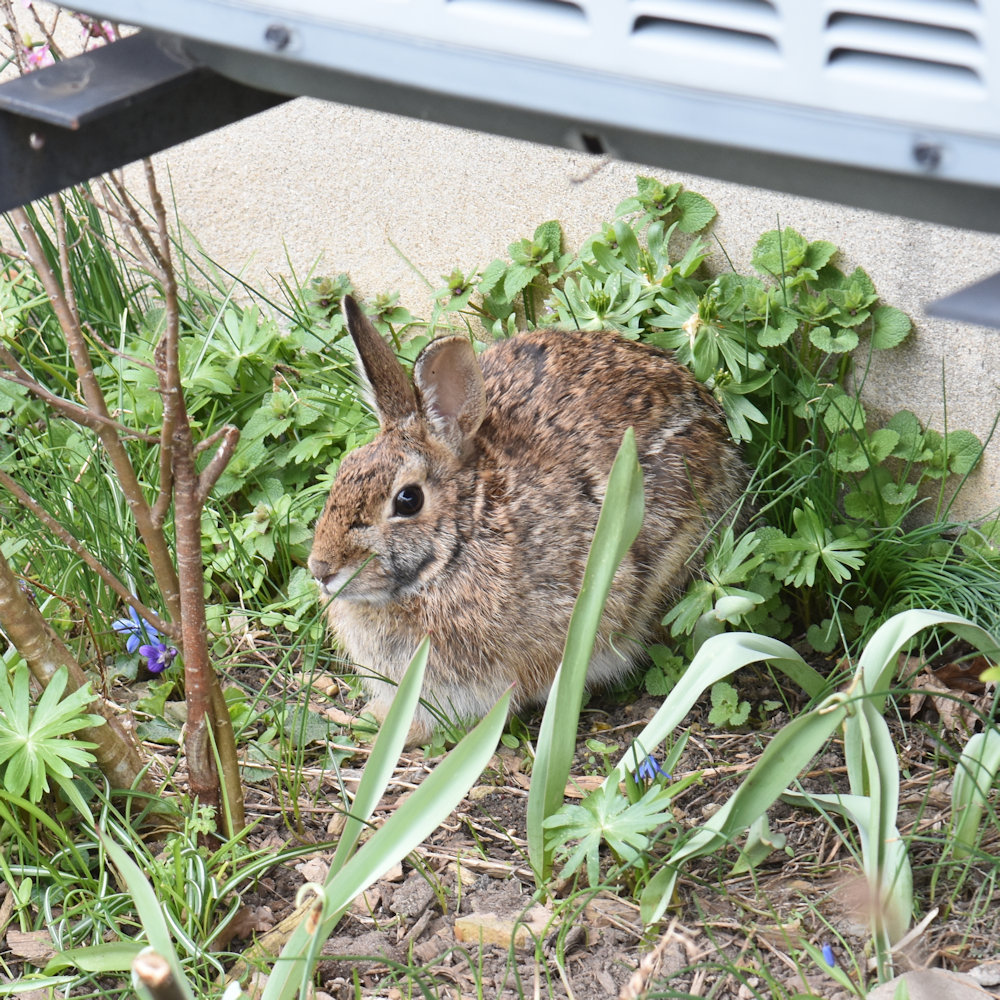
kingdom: Animalia
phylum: Chordata
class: Mammalia
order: Lagomorpha
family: Leporidae
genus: Sylvilagus
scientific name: Sylvilagus floridanus
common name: Eastern cottontail
